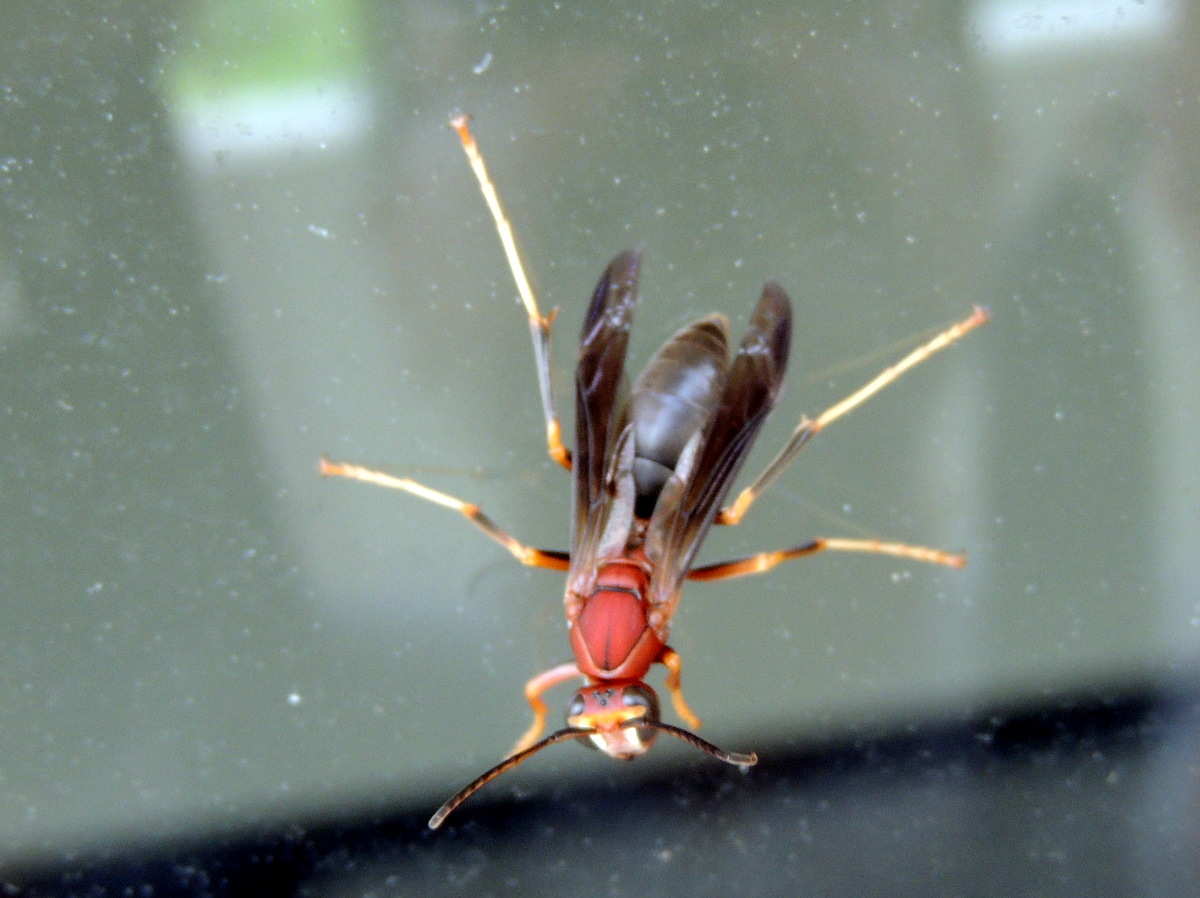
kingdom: Animalia
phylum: Arthropoda
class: Insecta
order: Hymenoptera
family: Eumenidae
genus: Polistes
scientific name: Polistes metricus
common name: Metric paper wasp
